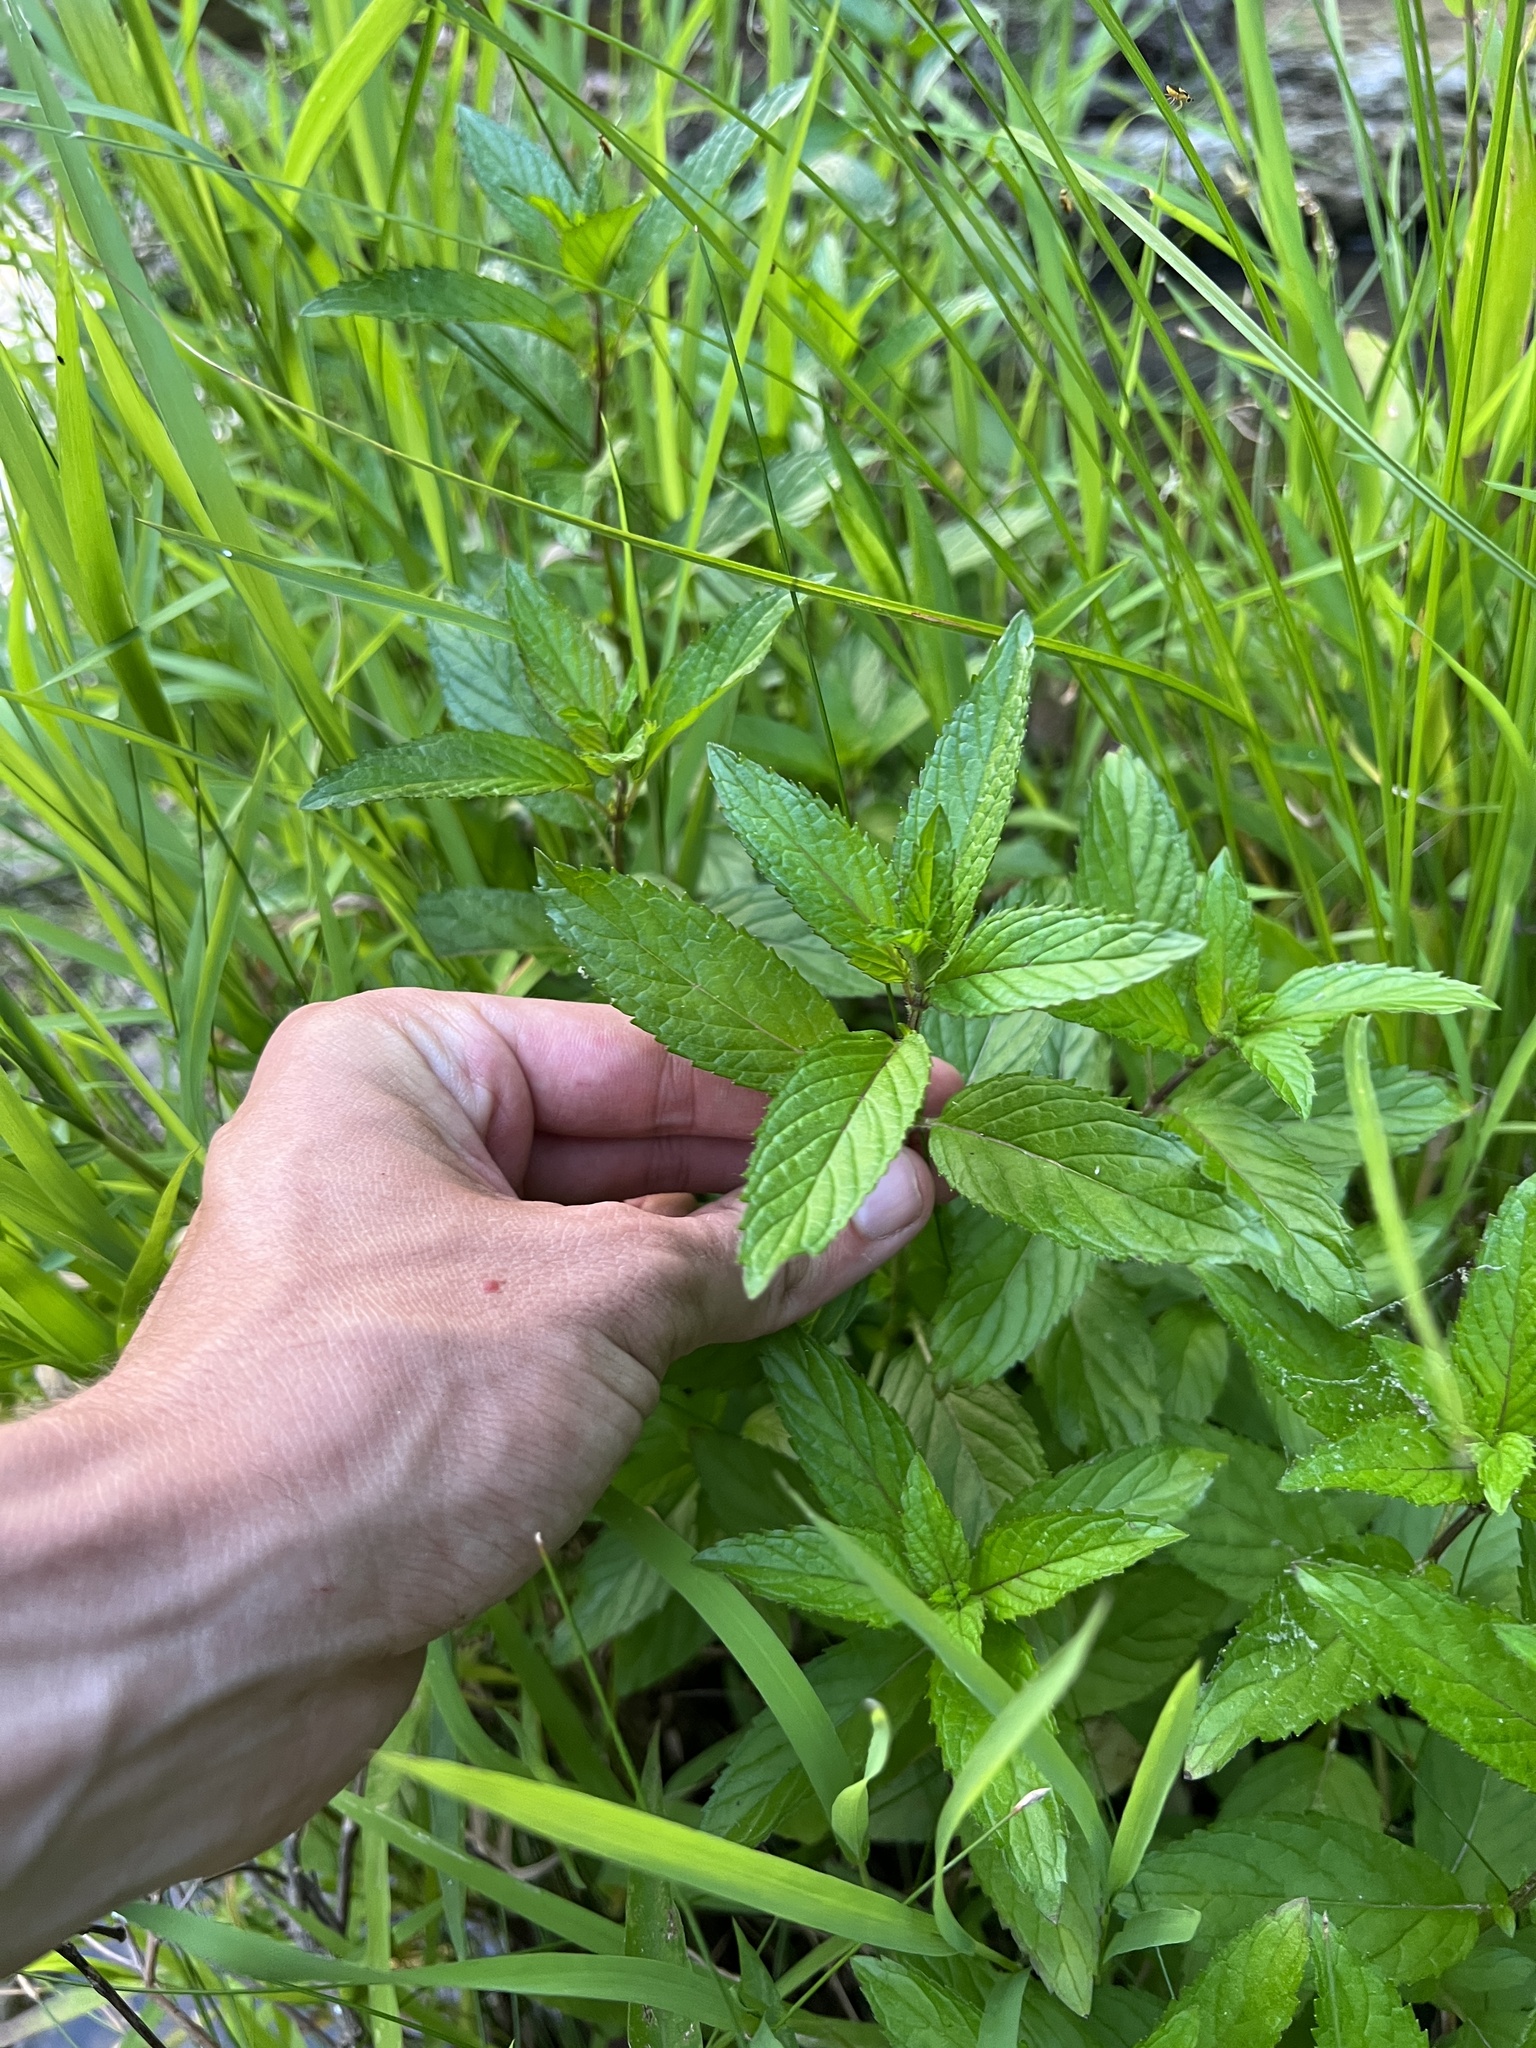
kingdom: Plantae
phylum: Tracheophyta
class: Magnoliopsida
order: Lamiales
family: Lamiaceae
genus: Mentha
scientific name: Mentha spicata
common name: Spearmint
